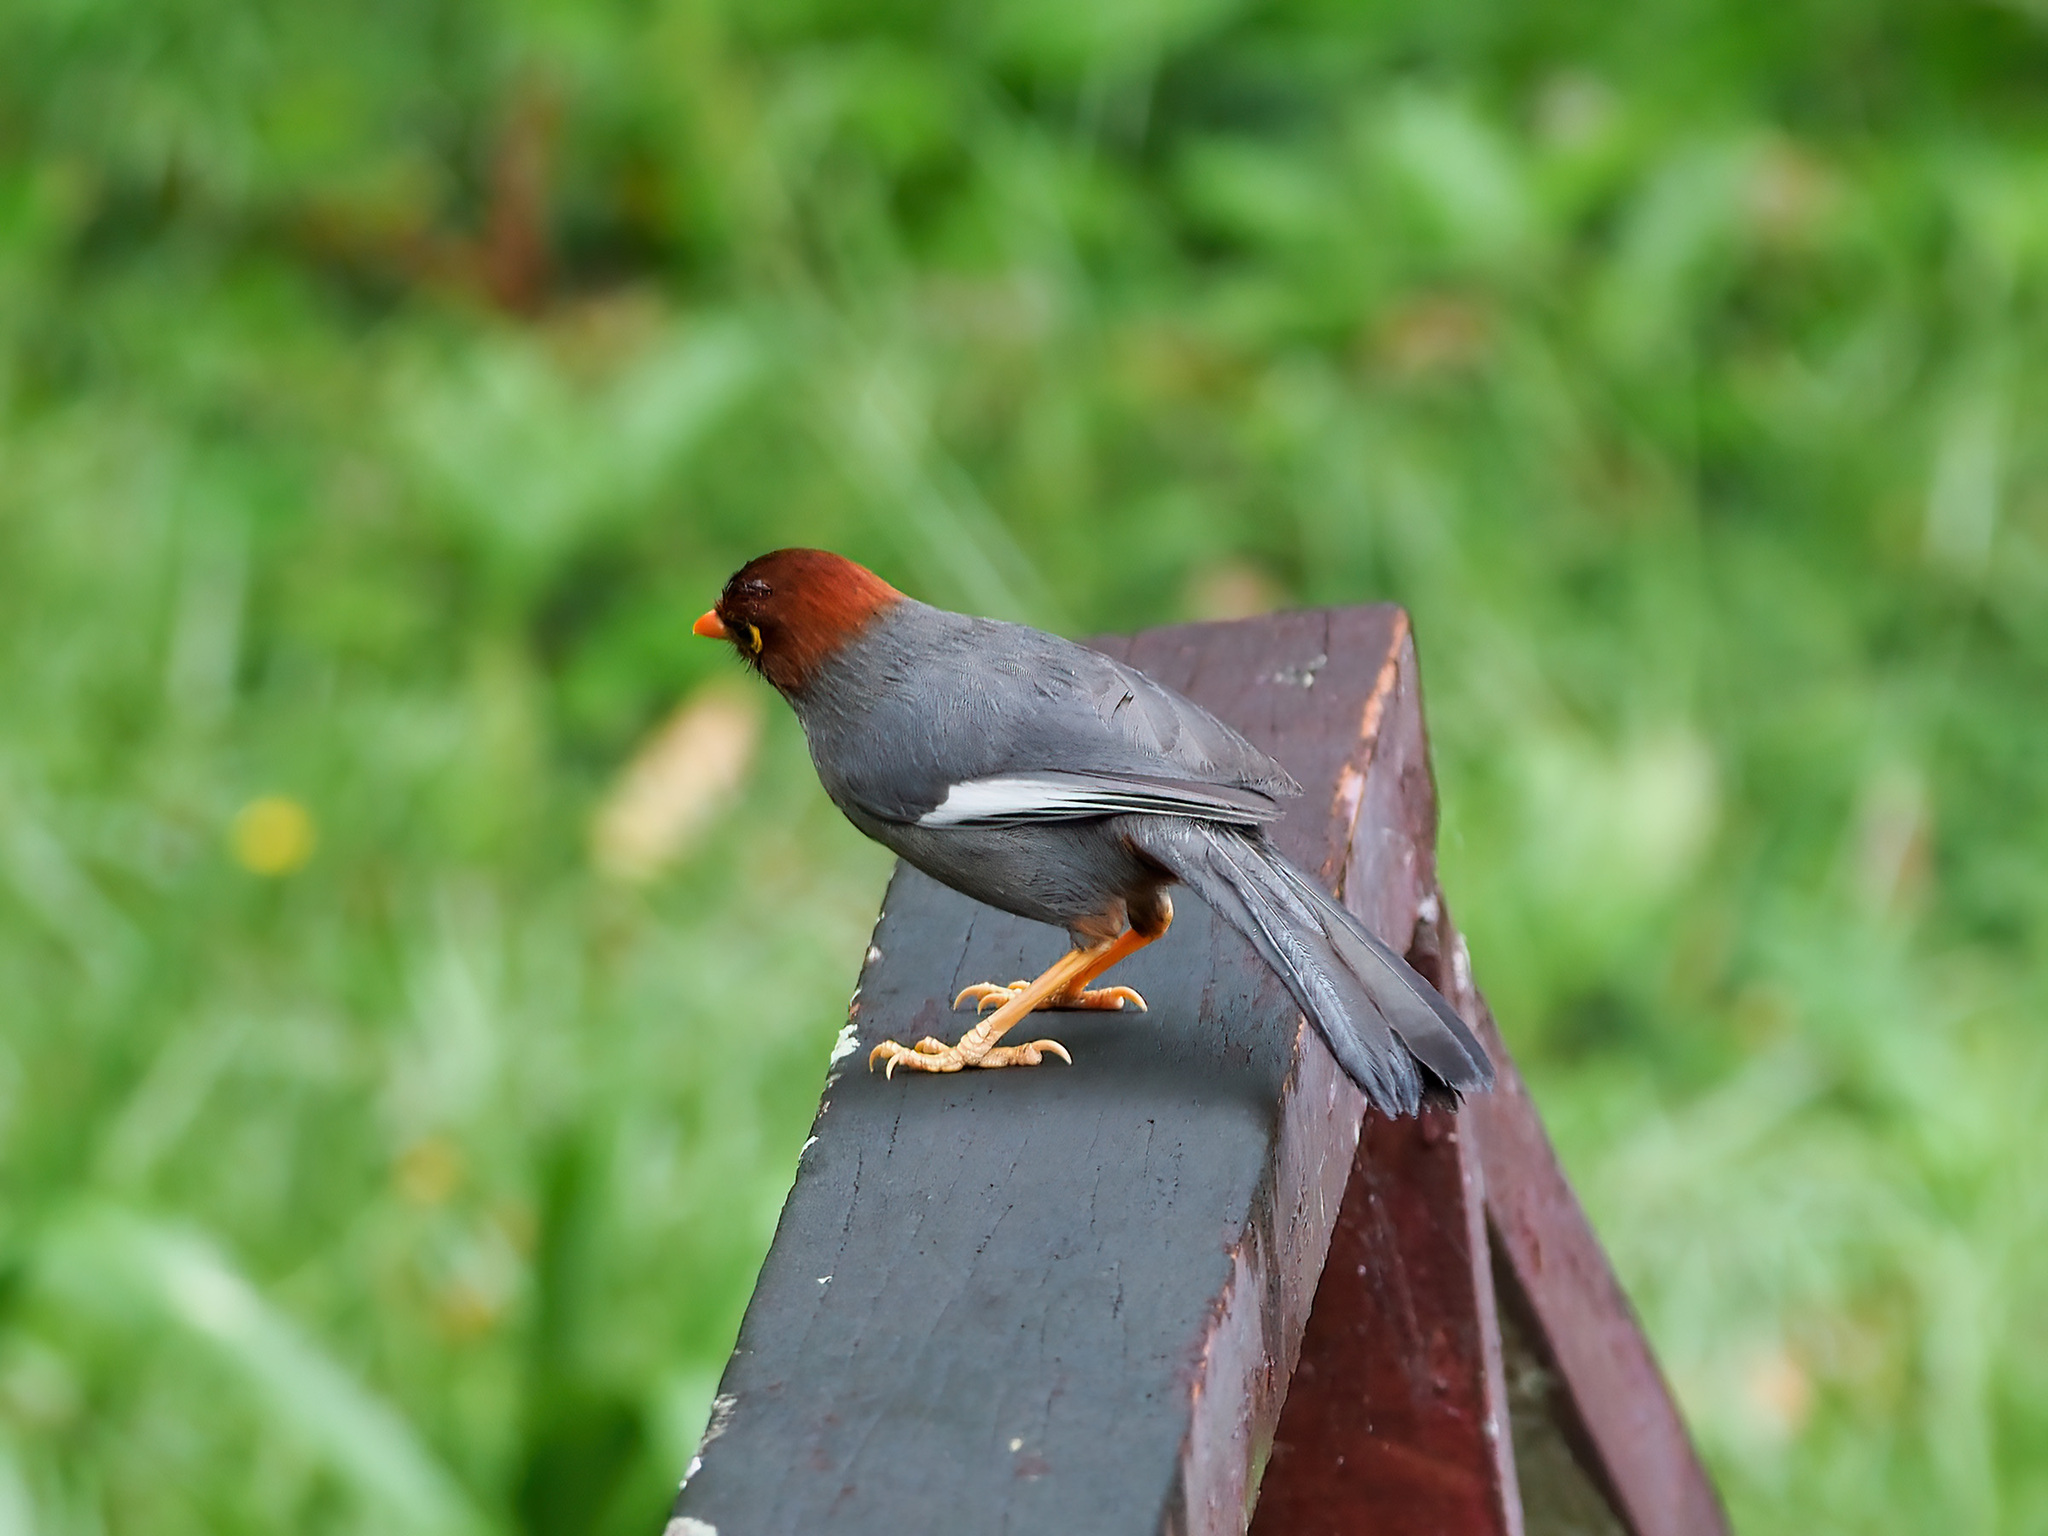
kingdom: Animalia
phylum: Chordata
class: Aves
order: Passeriformes
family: Leiothrichidae
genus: Garrulax
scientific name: Garrulax treacheri
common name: Chestnut-hooded laughingthrush
